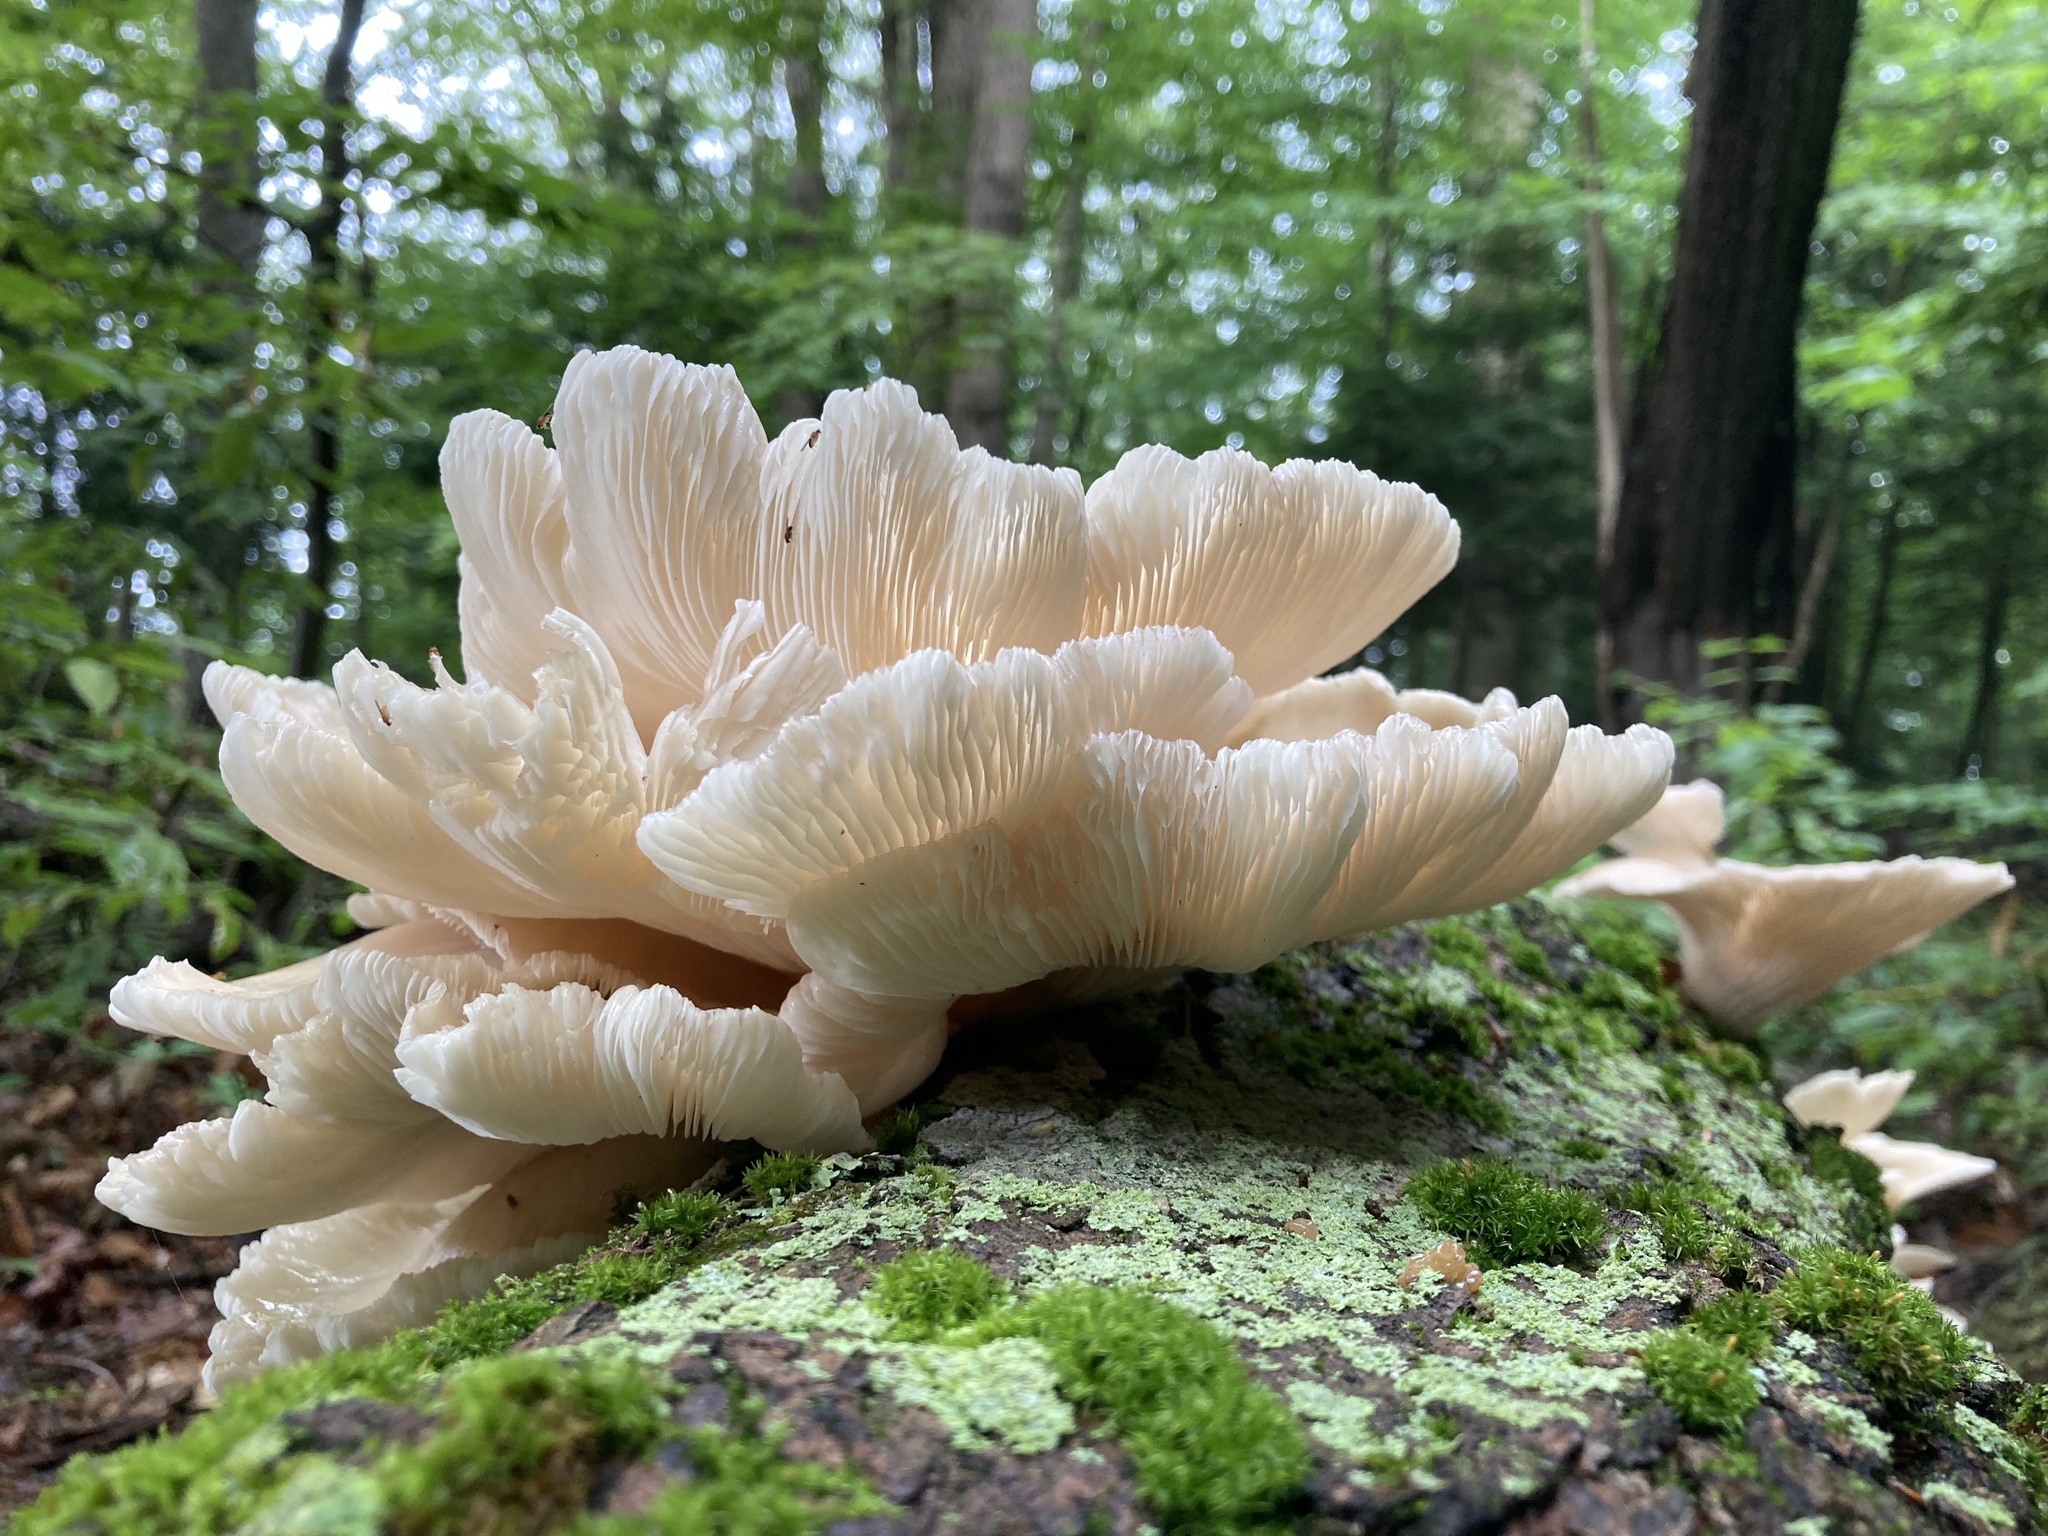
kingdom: Fungi
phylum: Basidiomycota
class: Agaricomycetes
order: Agaricales
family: Pleurotaceae
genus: Pleurotus
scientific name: Pleurotus pulmonarius
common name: Pale oyster
